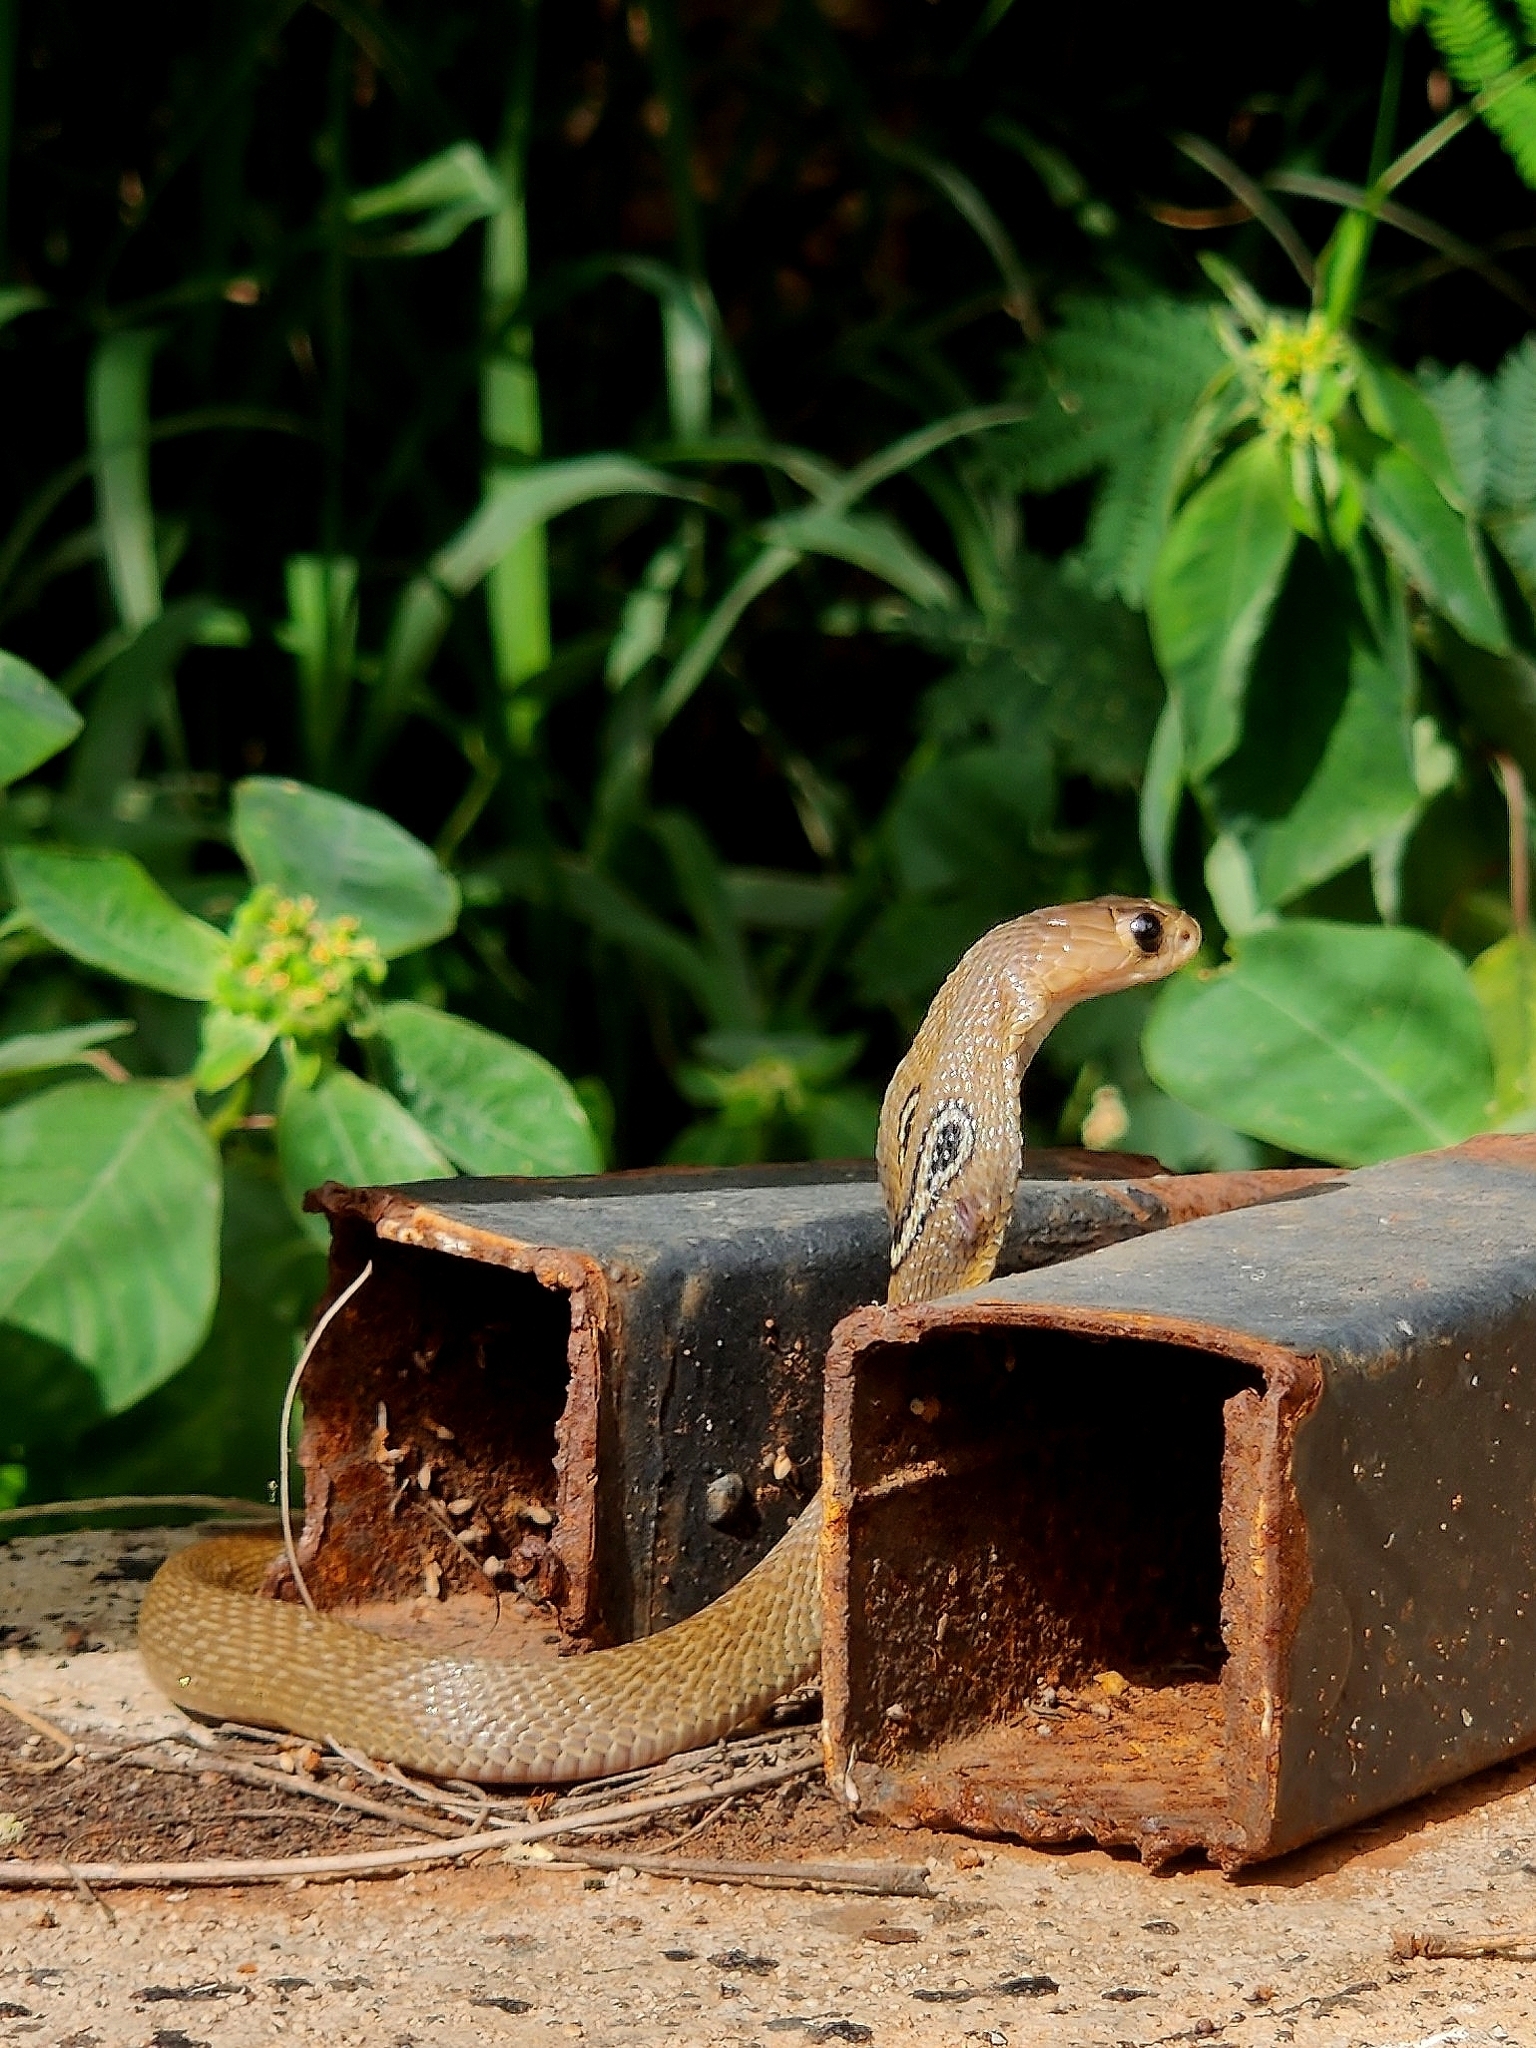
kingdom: Animalia
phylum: Chordata
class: Squamata
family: Elapidae
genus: Naja
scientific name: Naja naja
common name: Indian cobra
